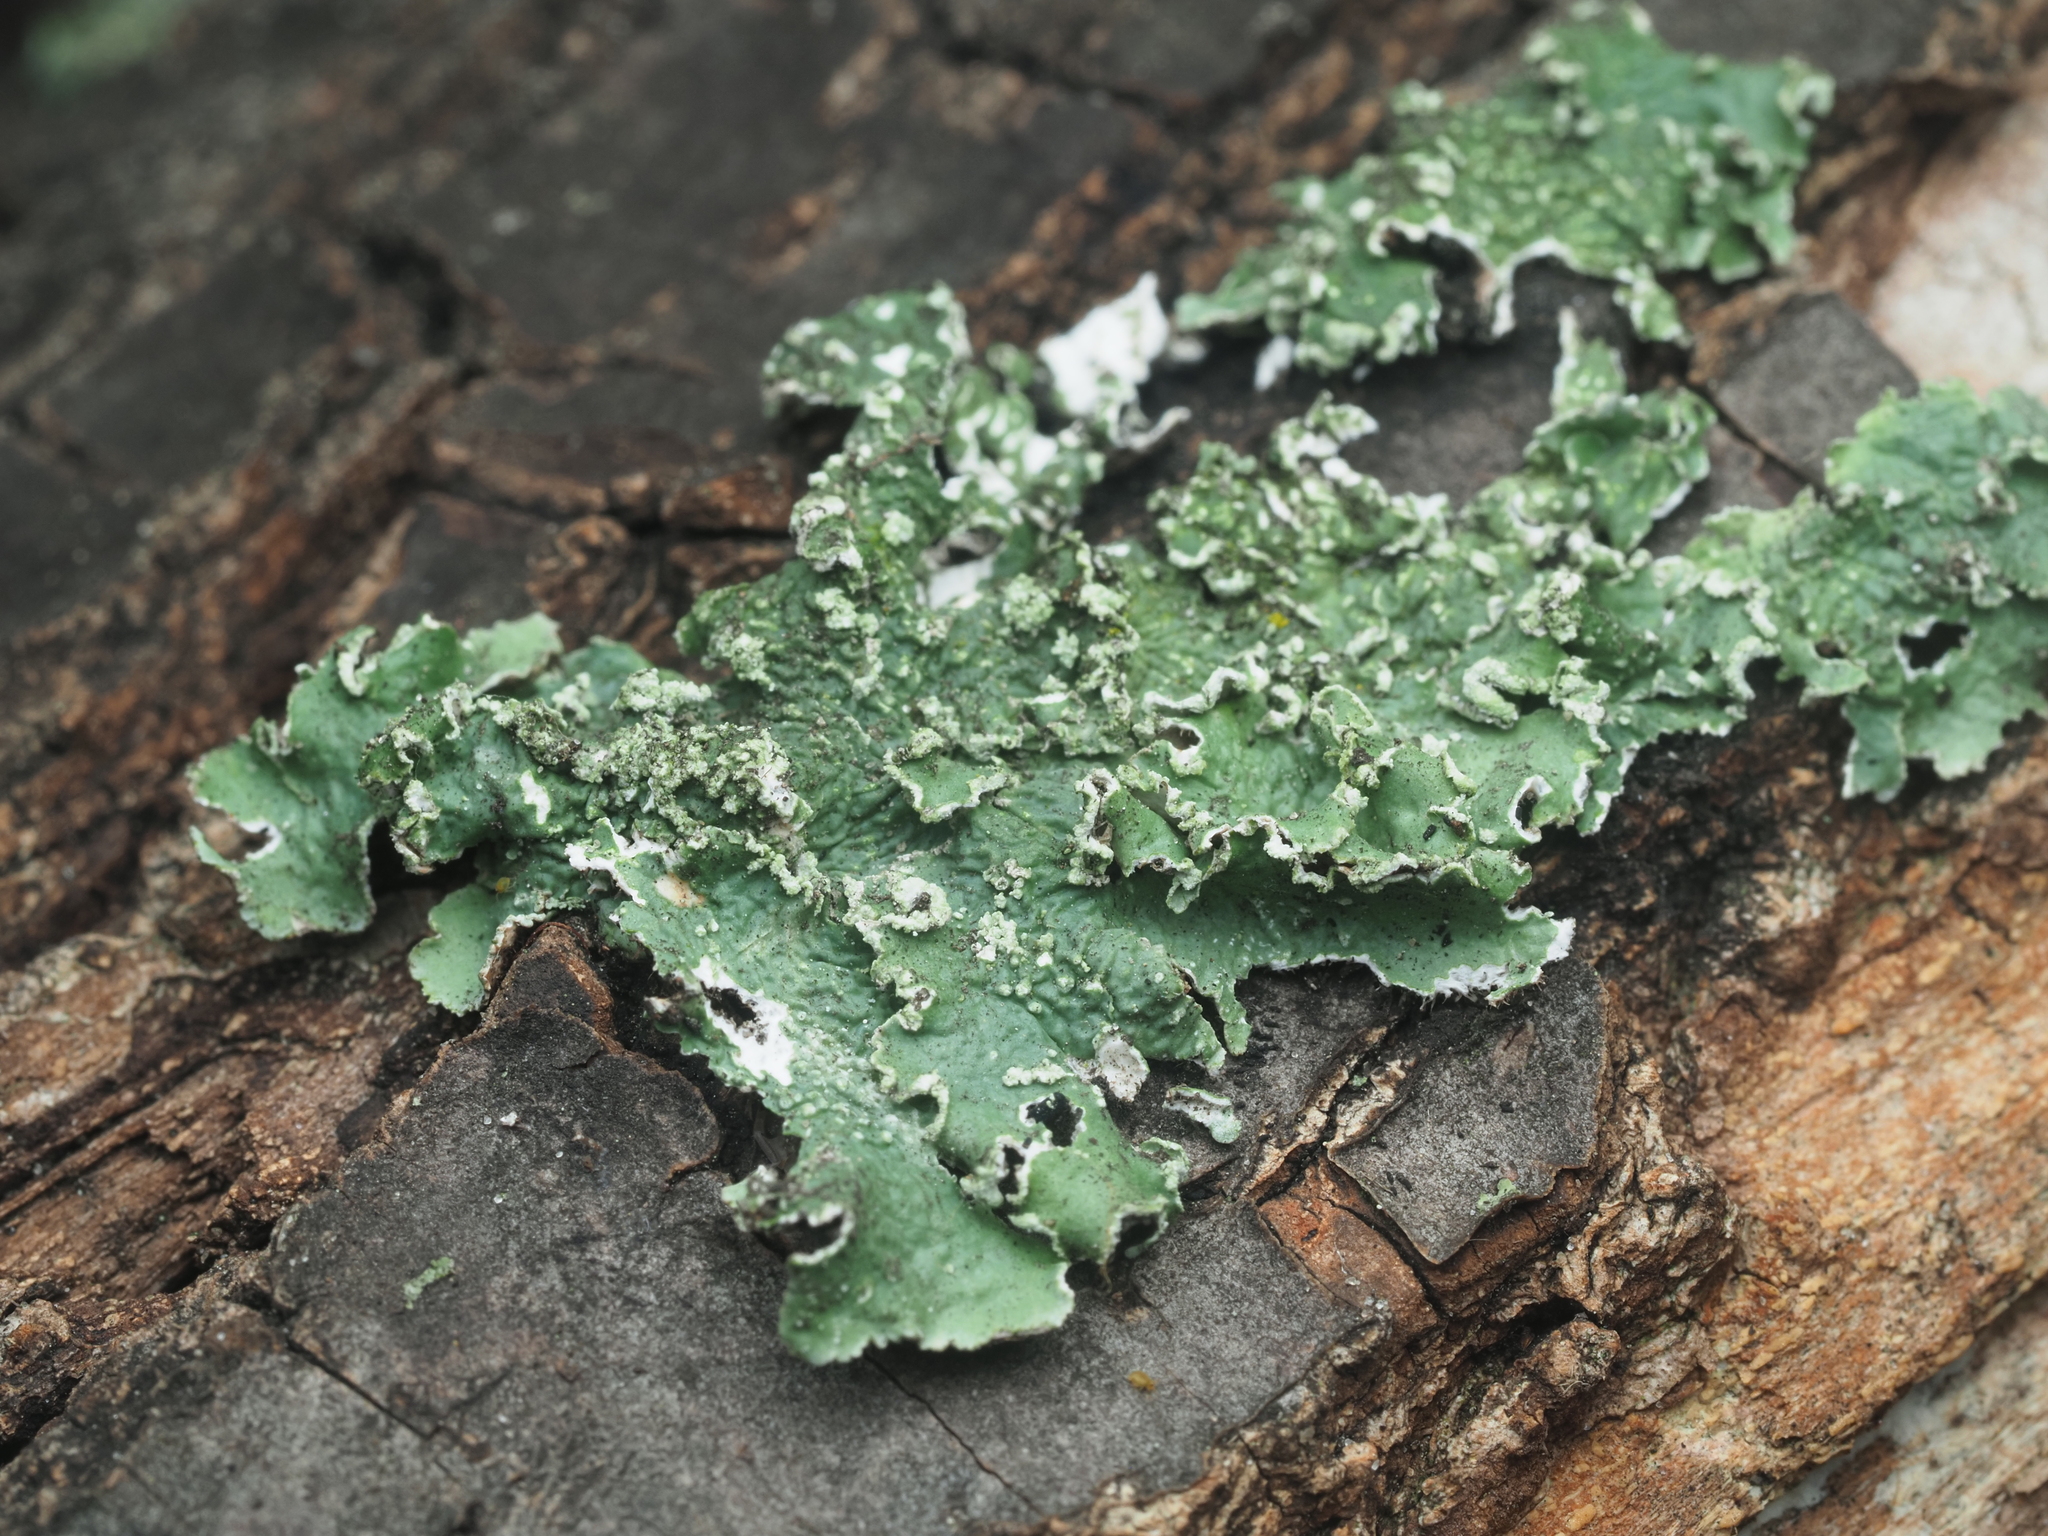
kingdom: Fungi
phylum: Ascomycota
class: Lecanoromycetes
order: Lecanorales
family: Parmeliaceae
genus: Punctelia
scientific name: Punctelia jeckeri
